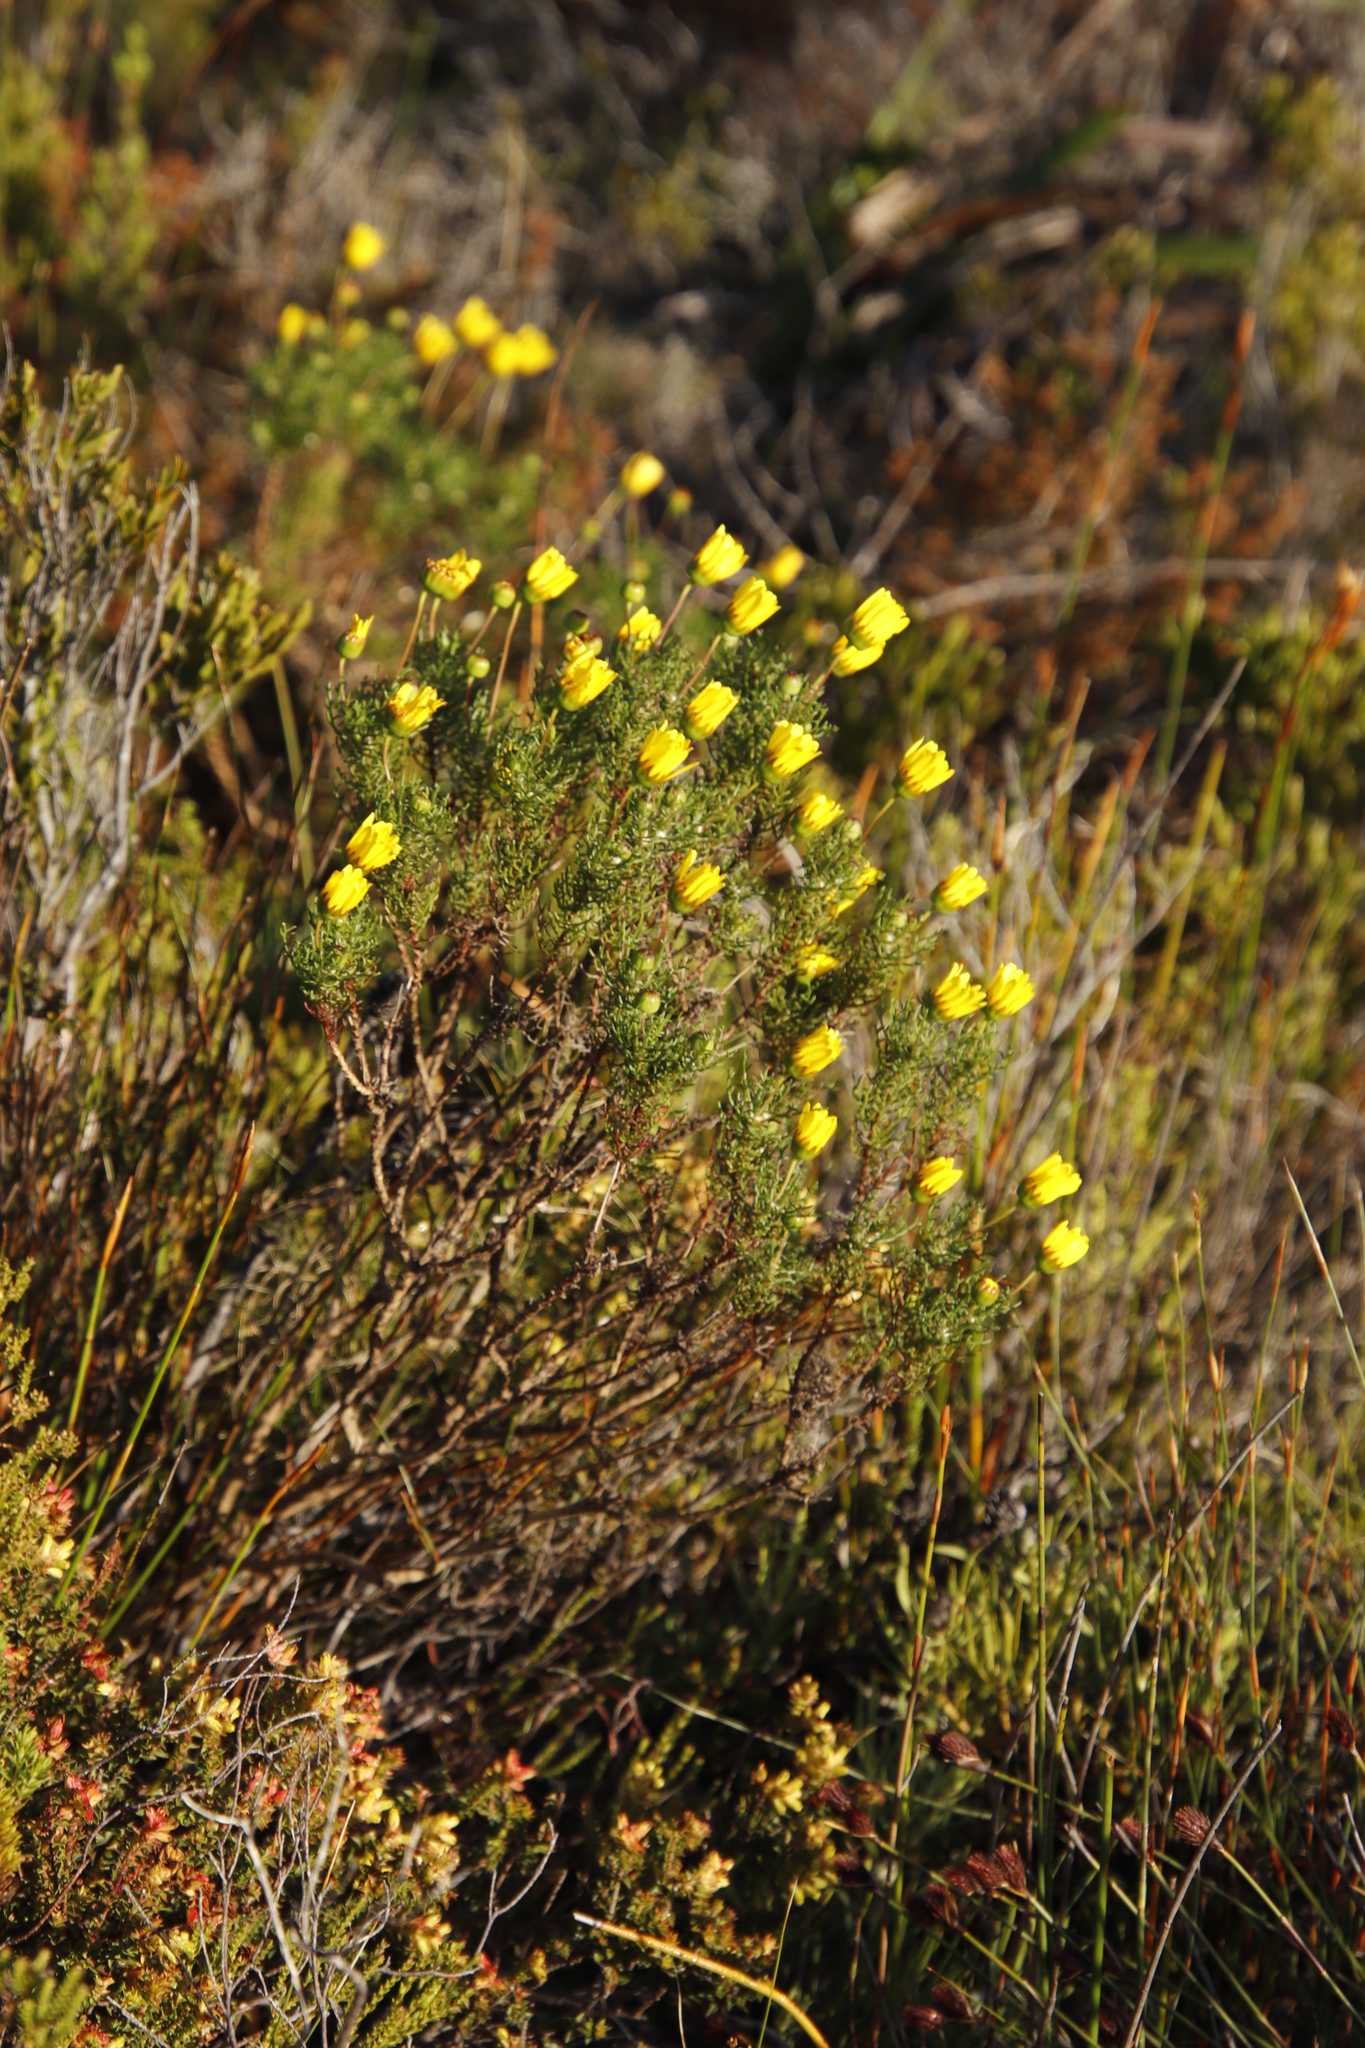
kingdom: Plantae
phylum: Tracheophyta
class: Magnoliopsida
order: Asterales
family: Asteraceae
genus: Euryops
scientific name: Euryops abrotanifolius
